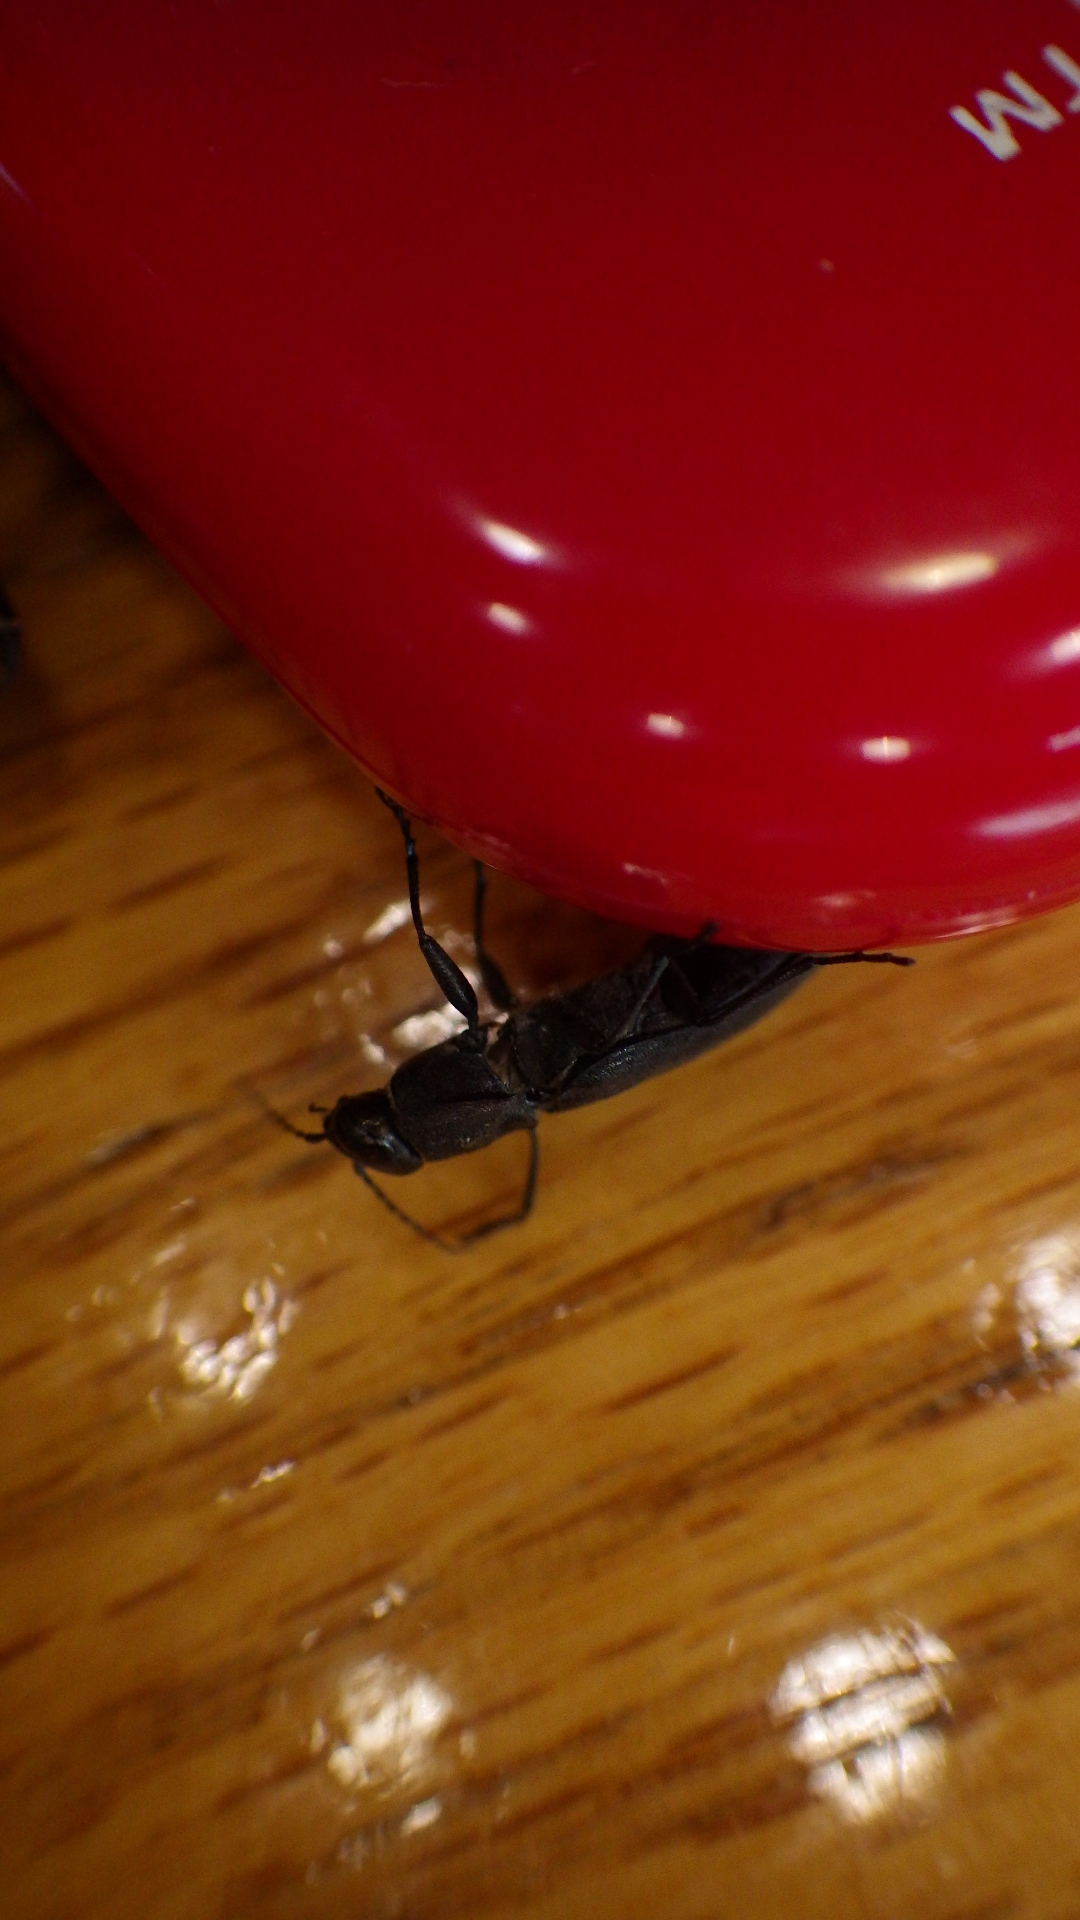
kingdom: Animalia
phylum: Arthropoda
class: Insecta
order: Coleoptera
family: Buprestidae
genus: Melanophila
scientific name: Melanophila acuminata
